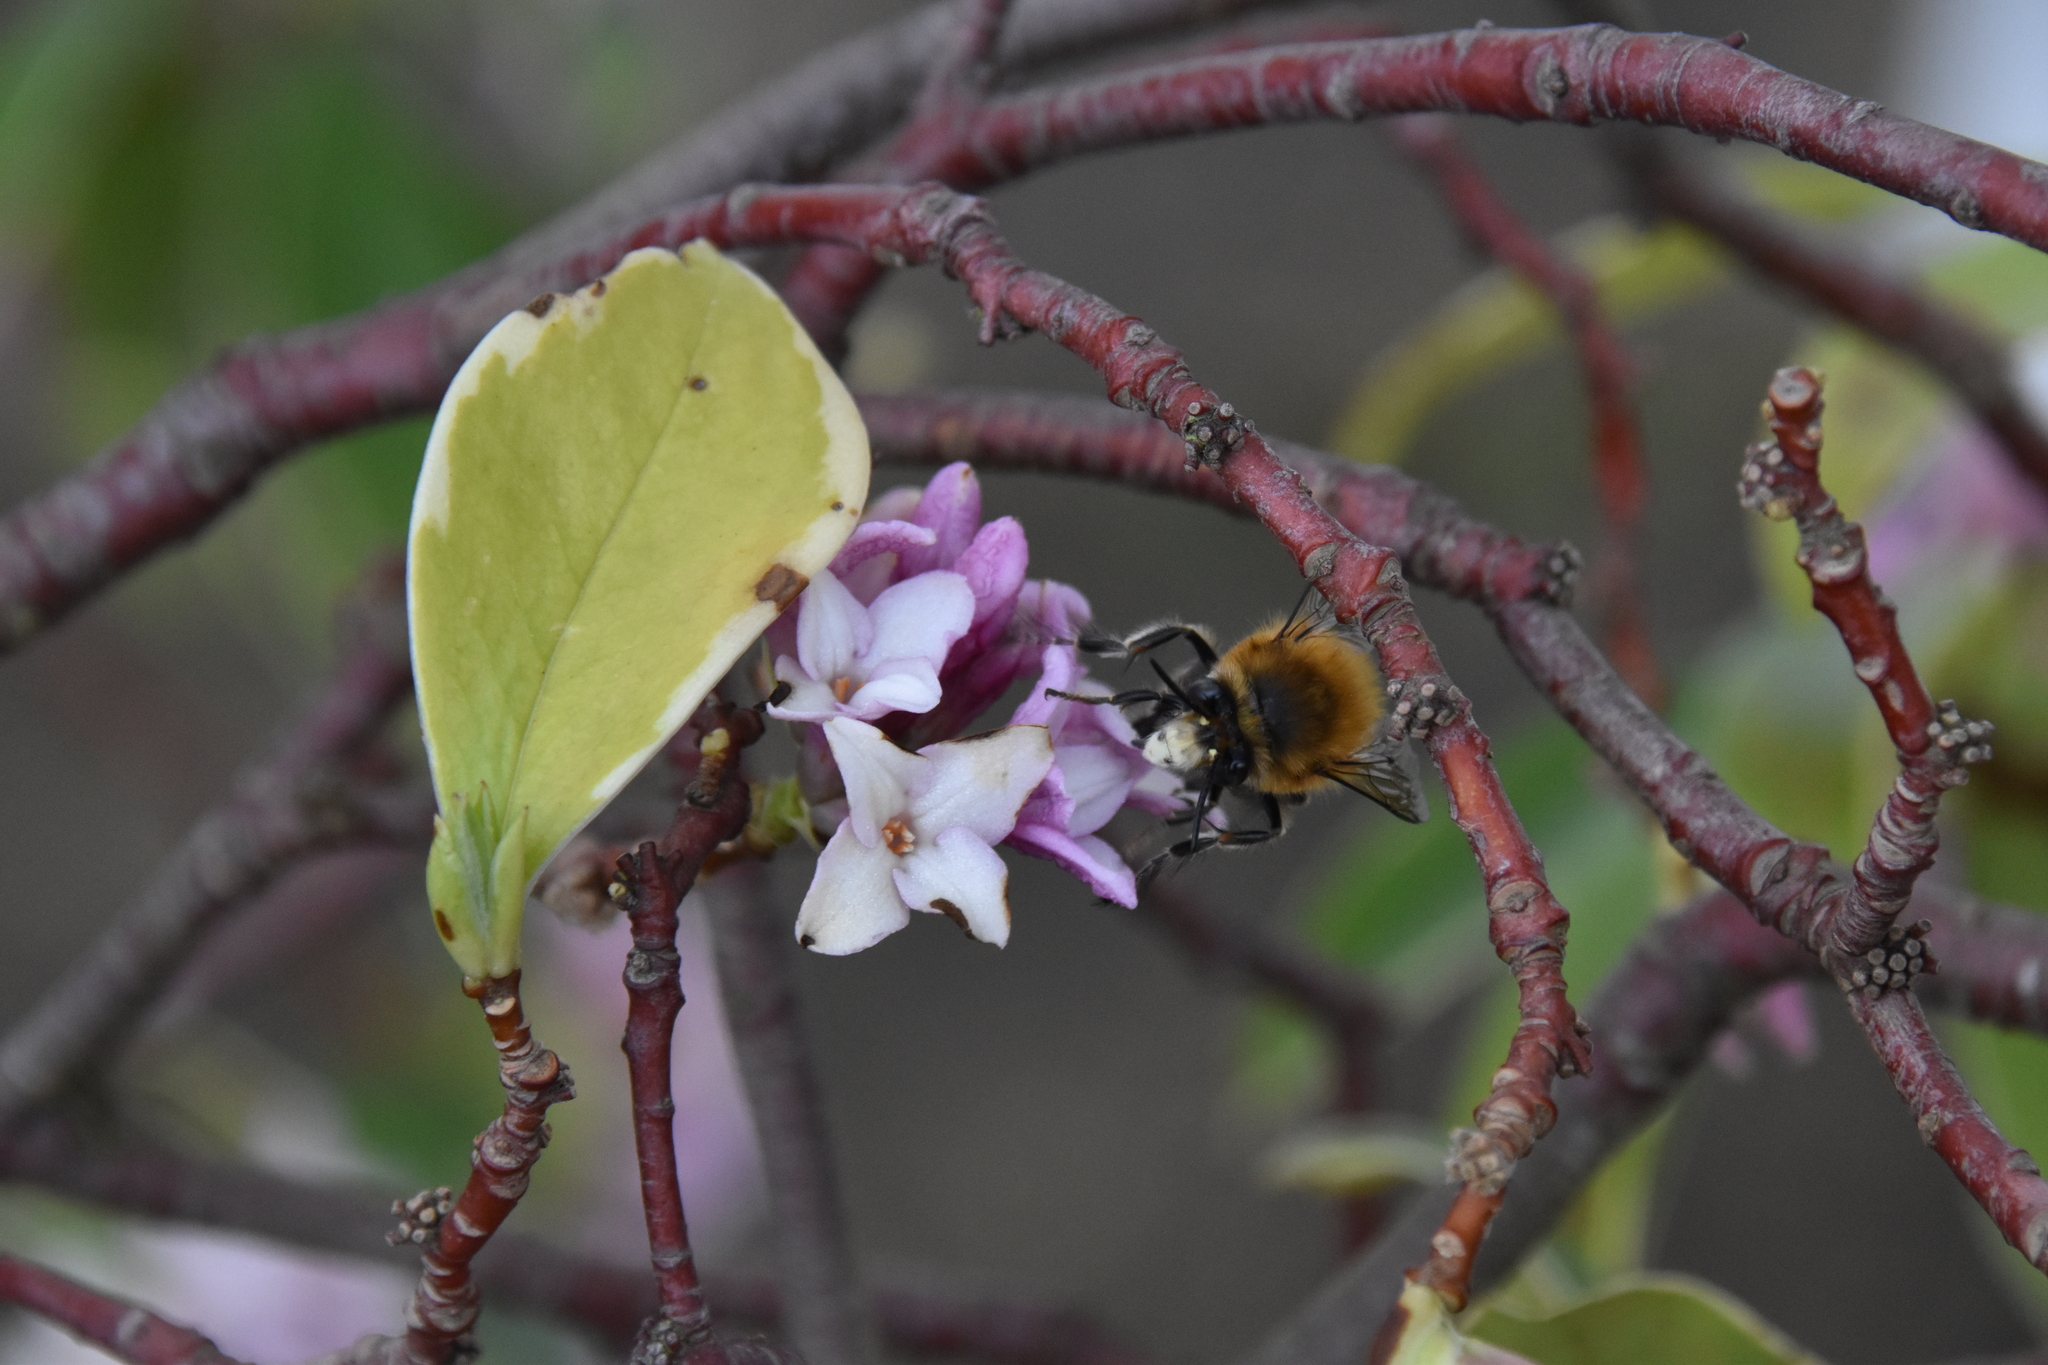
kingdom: Animalia
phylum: Arthropoda
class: Insecta
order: Hymenoptera
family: Apidae
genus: Anthophora
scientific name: Anthophora plumipes
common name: Hairy-footed flower bee
